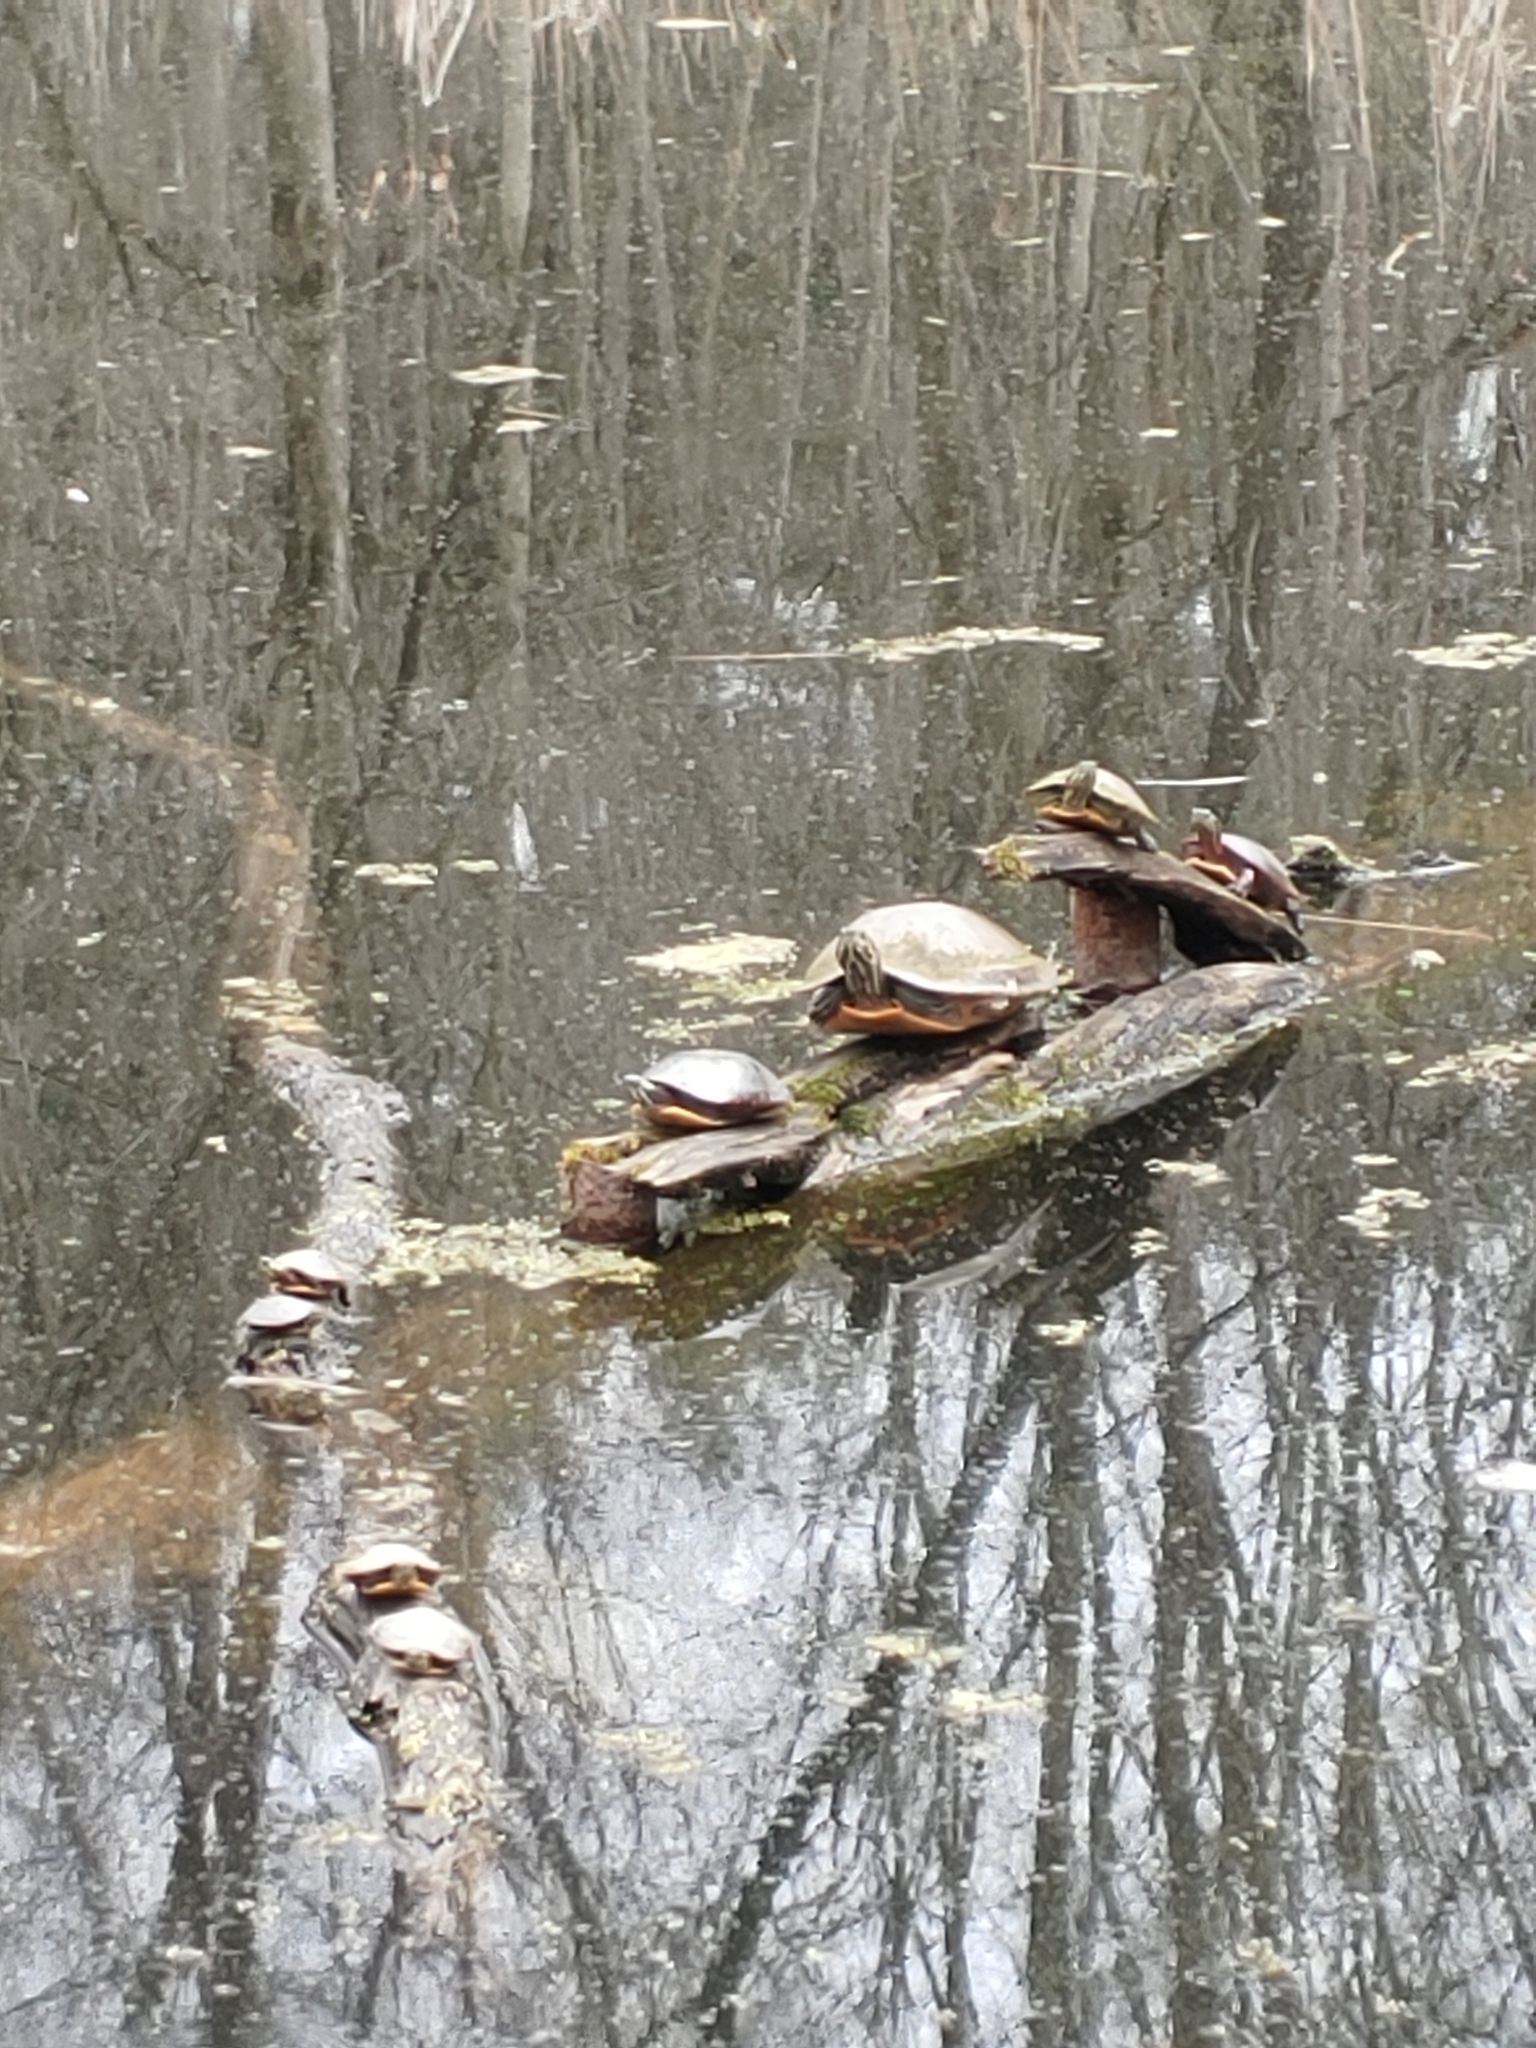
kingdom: Animalia
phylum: Chordata
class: Testudines
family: Emydidae
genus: Chrysemys
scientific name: Chrysemys picta
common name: Painted turtle
